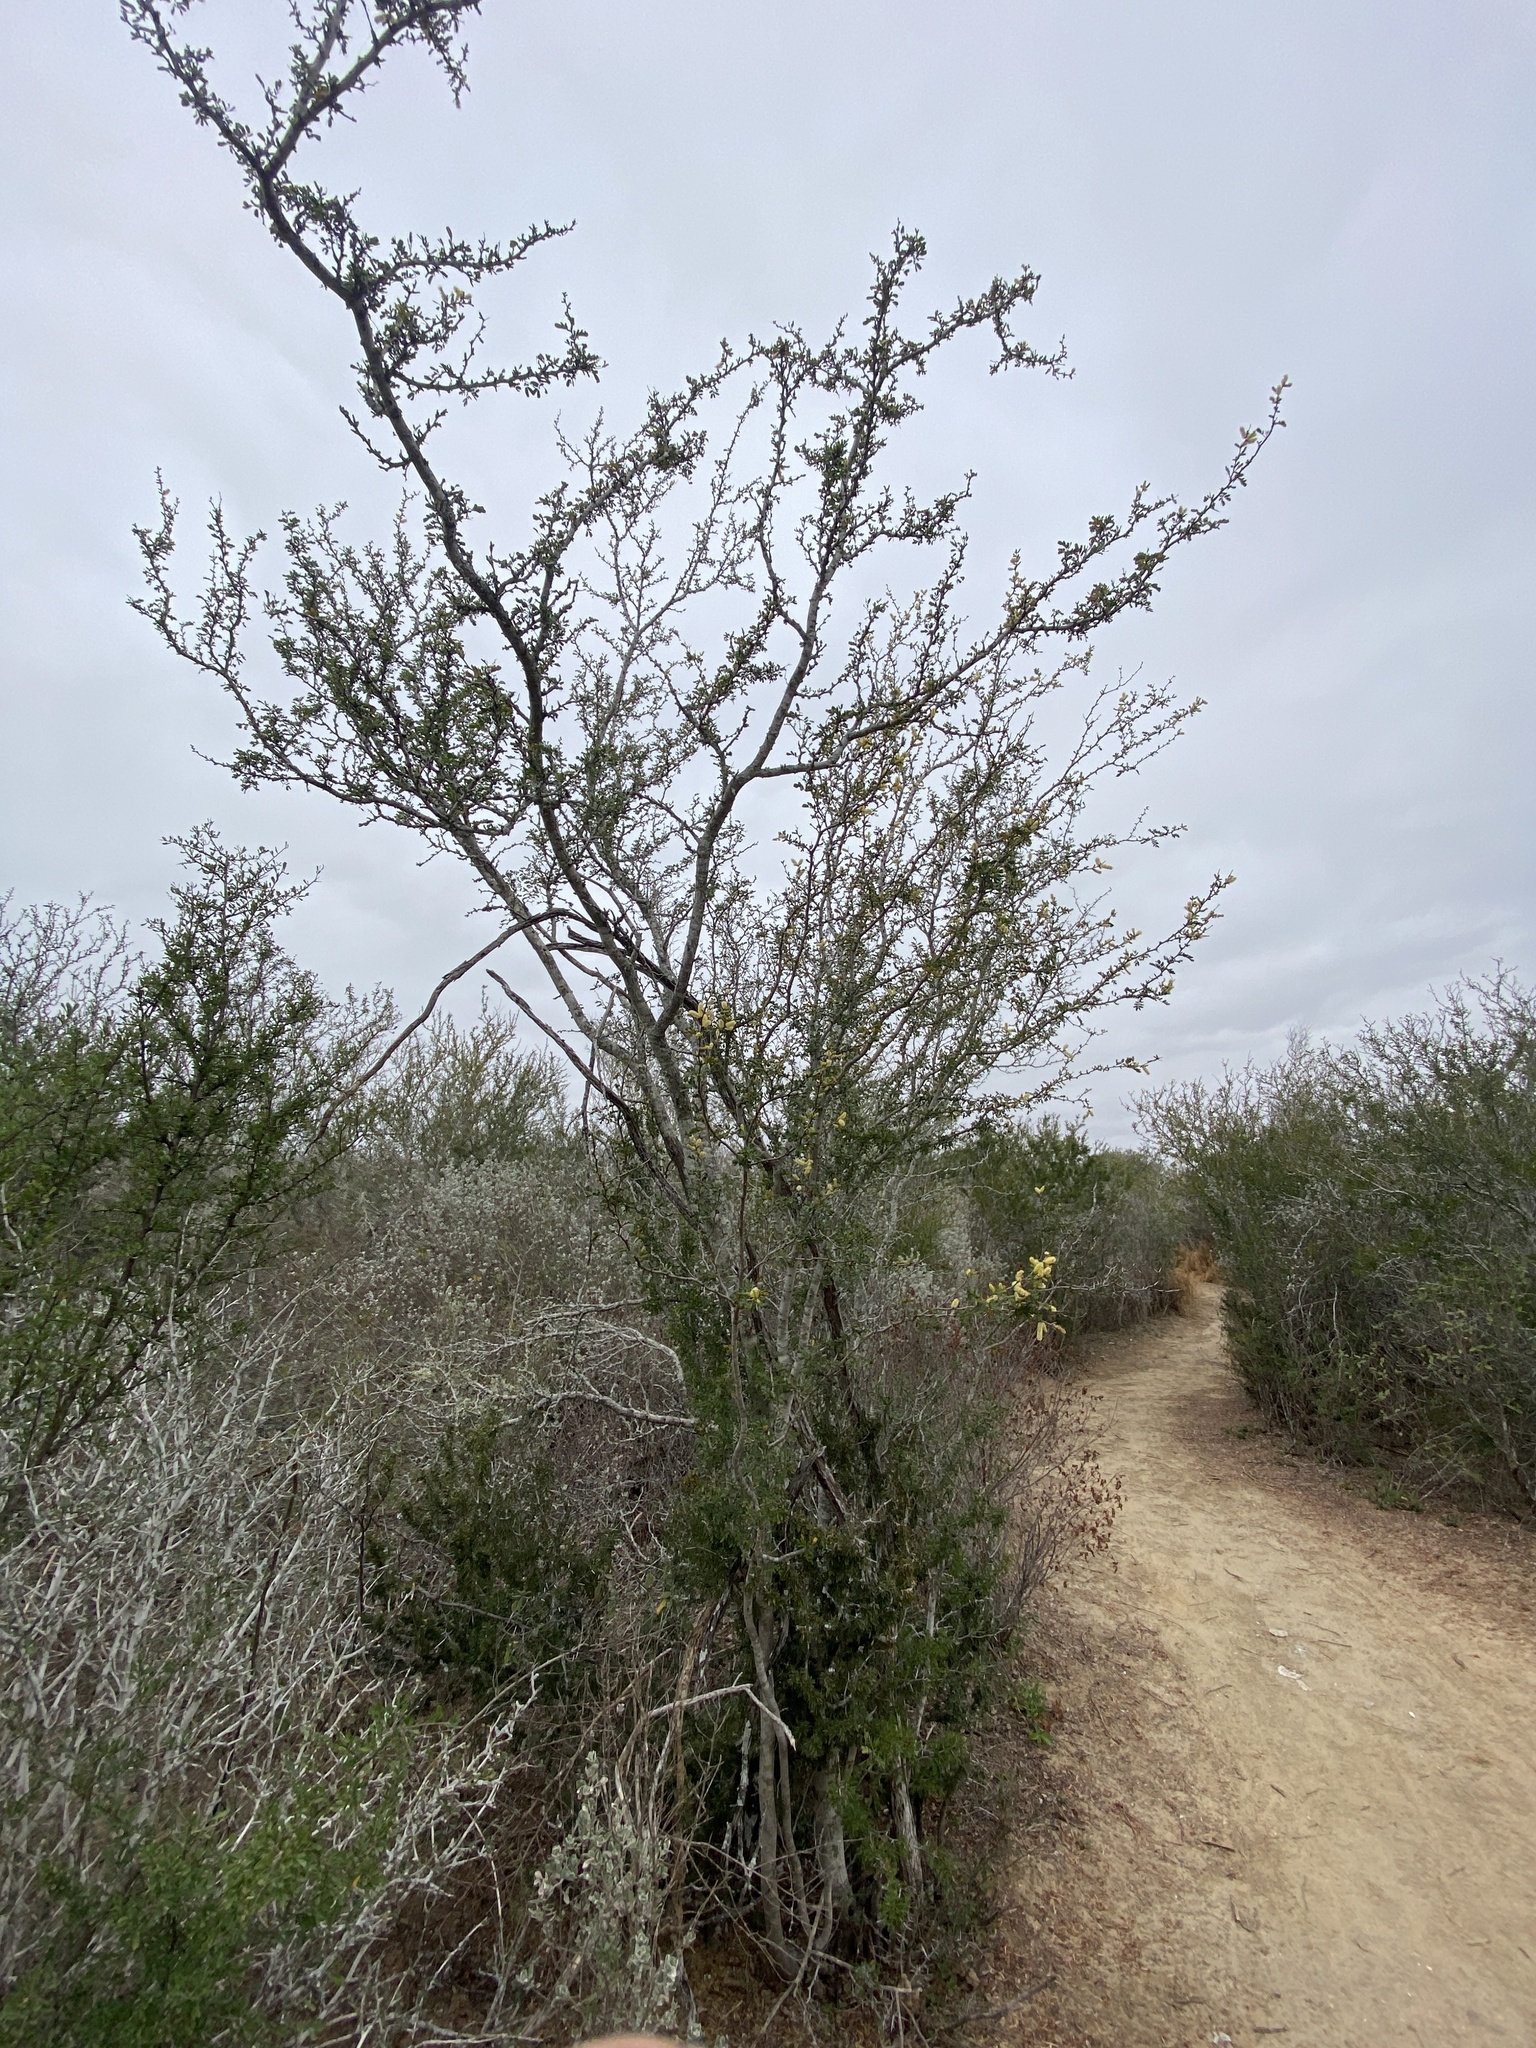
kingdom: Plantae
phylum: Tracheophyta
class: Magnoliopsida
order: Fabales
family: Fabaceae
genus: Vachellia
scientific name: Vachellia rigidula
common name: Blackbrush
